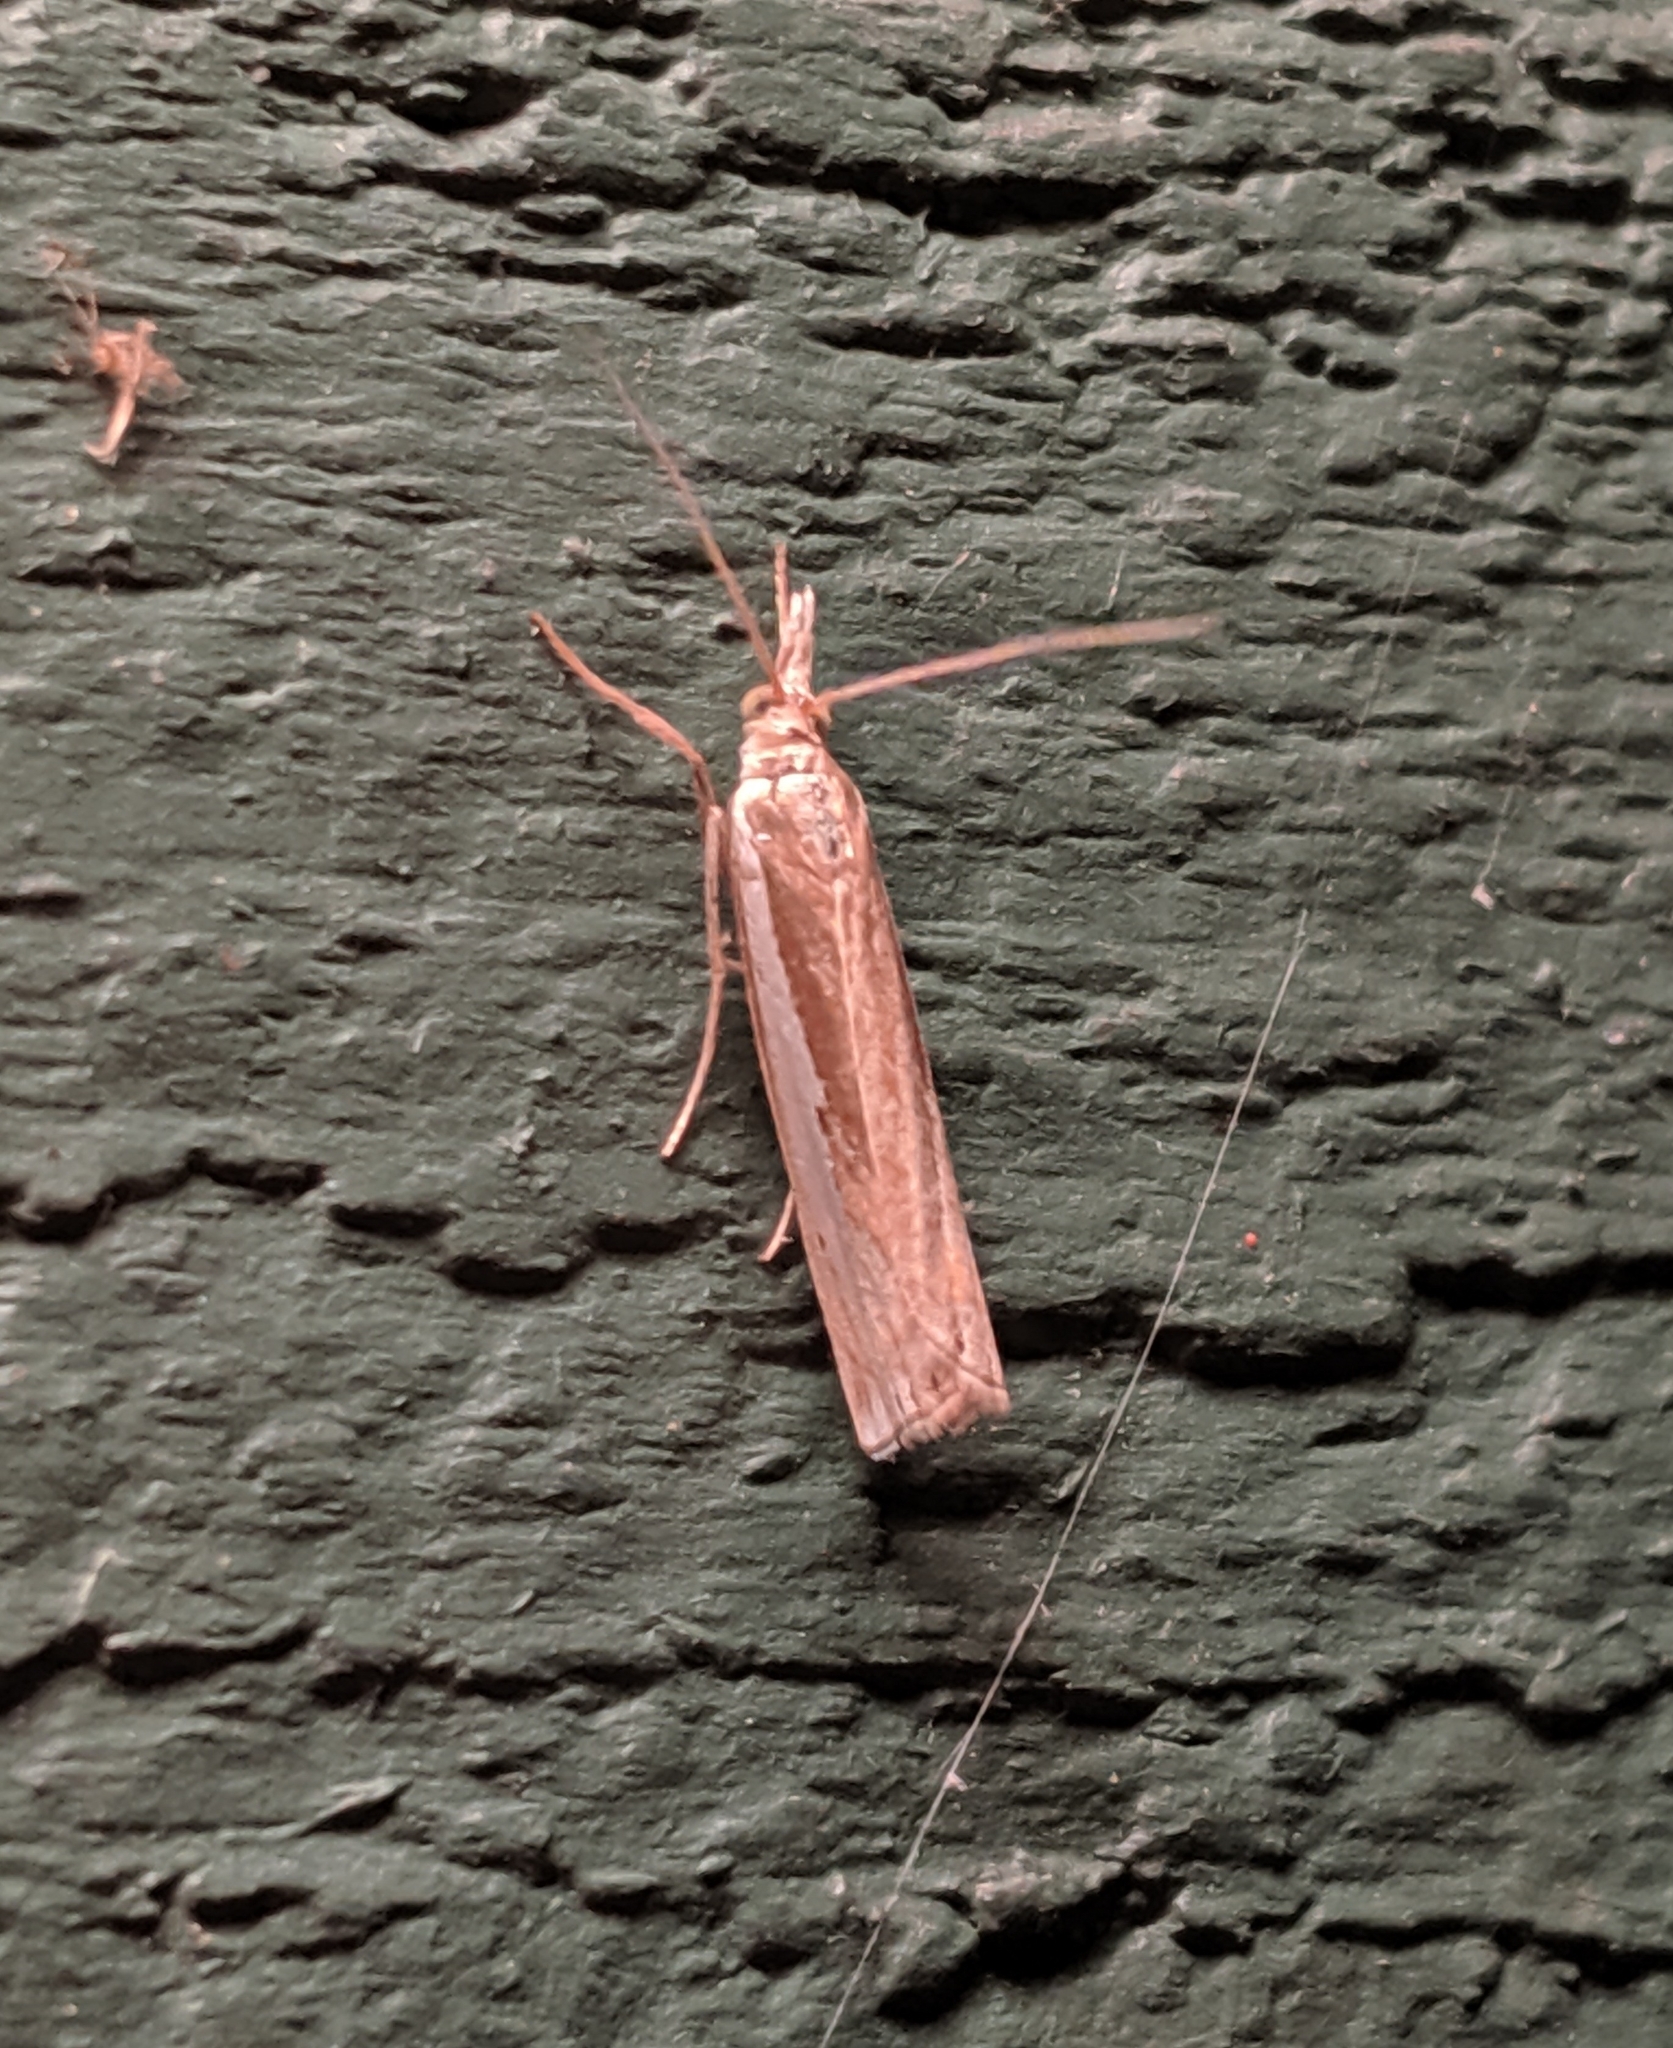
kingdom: Animalia
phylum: Arthropoda
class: Insecta
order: Lepidoptera
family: Crambidae
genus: Crambus
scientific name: Crambus praefectellus
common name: Common grass-veneer
